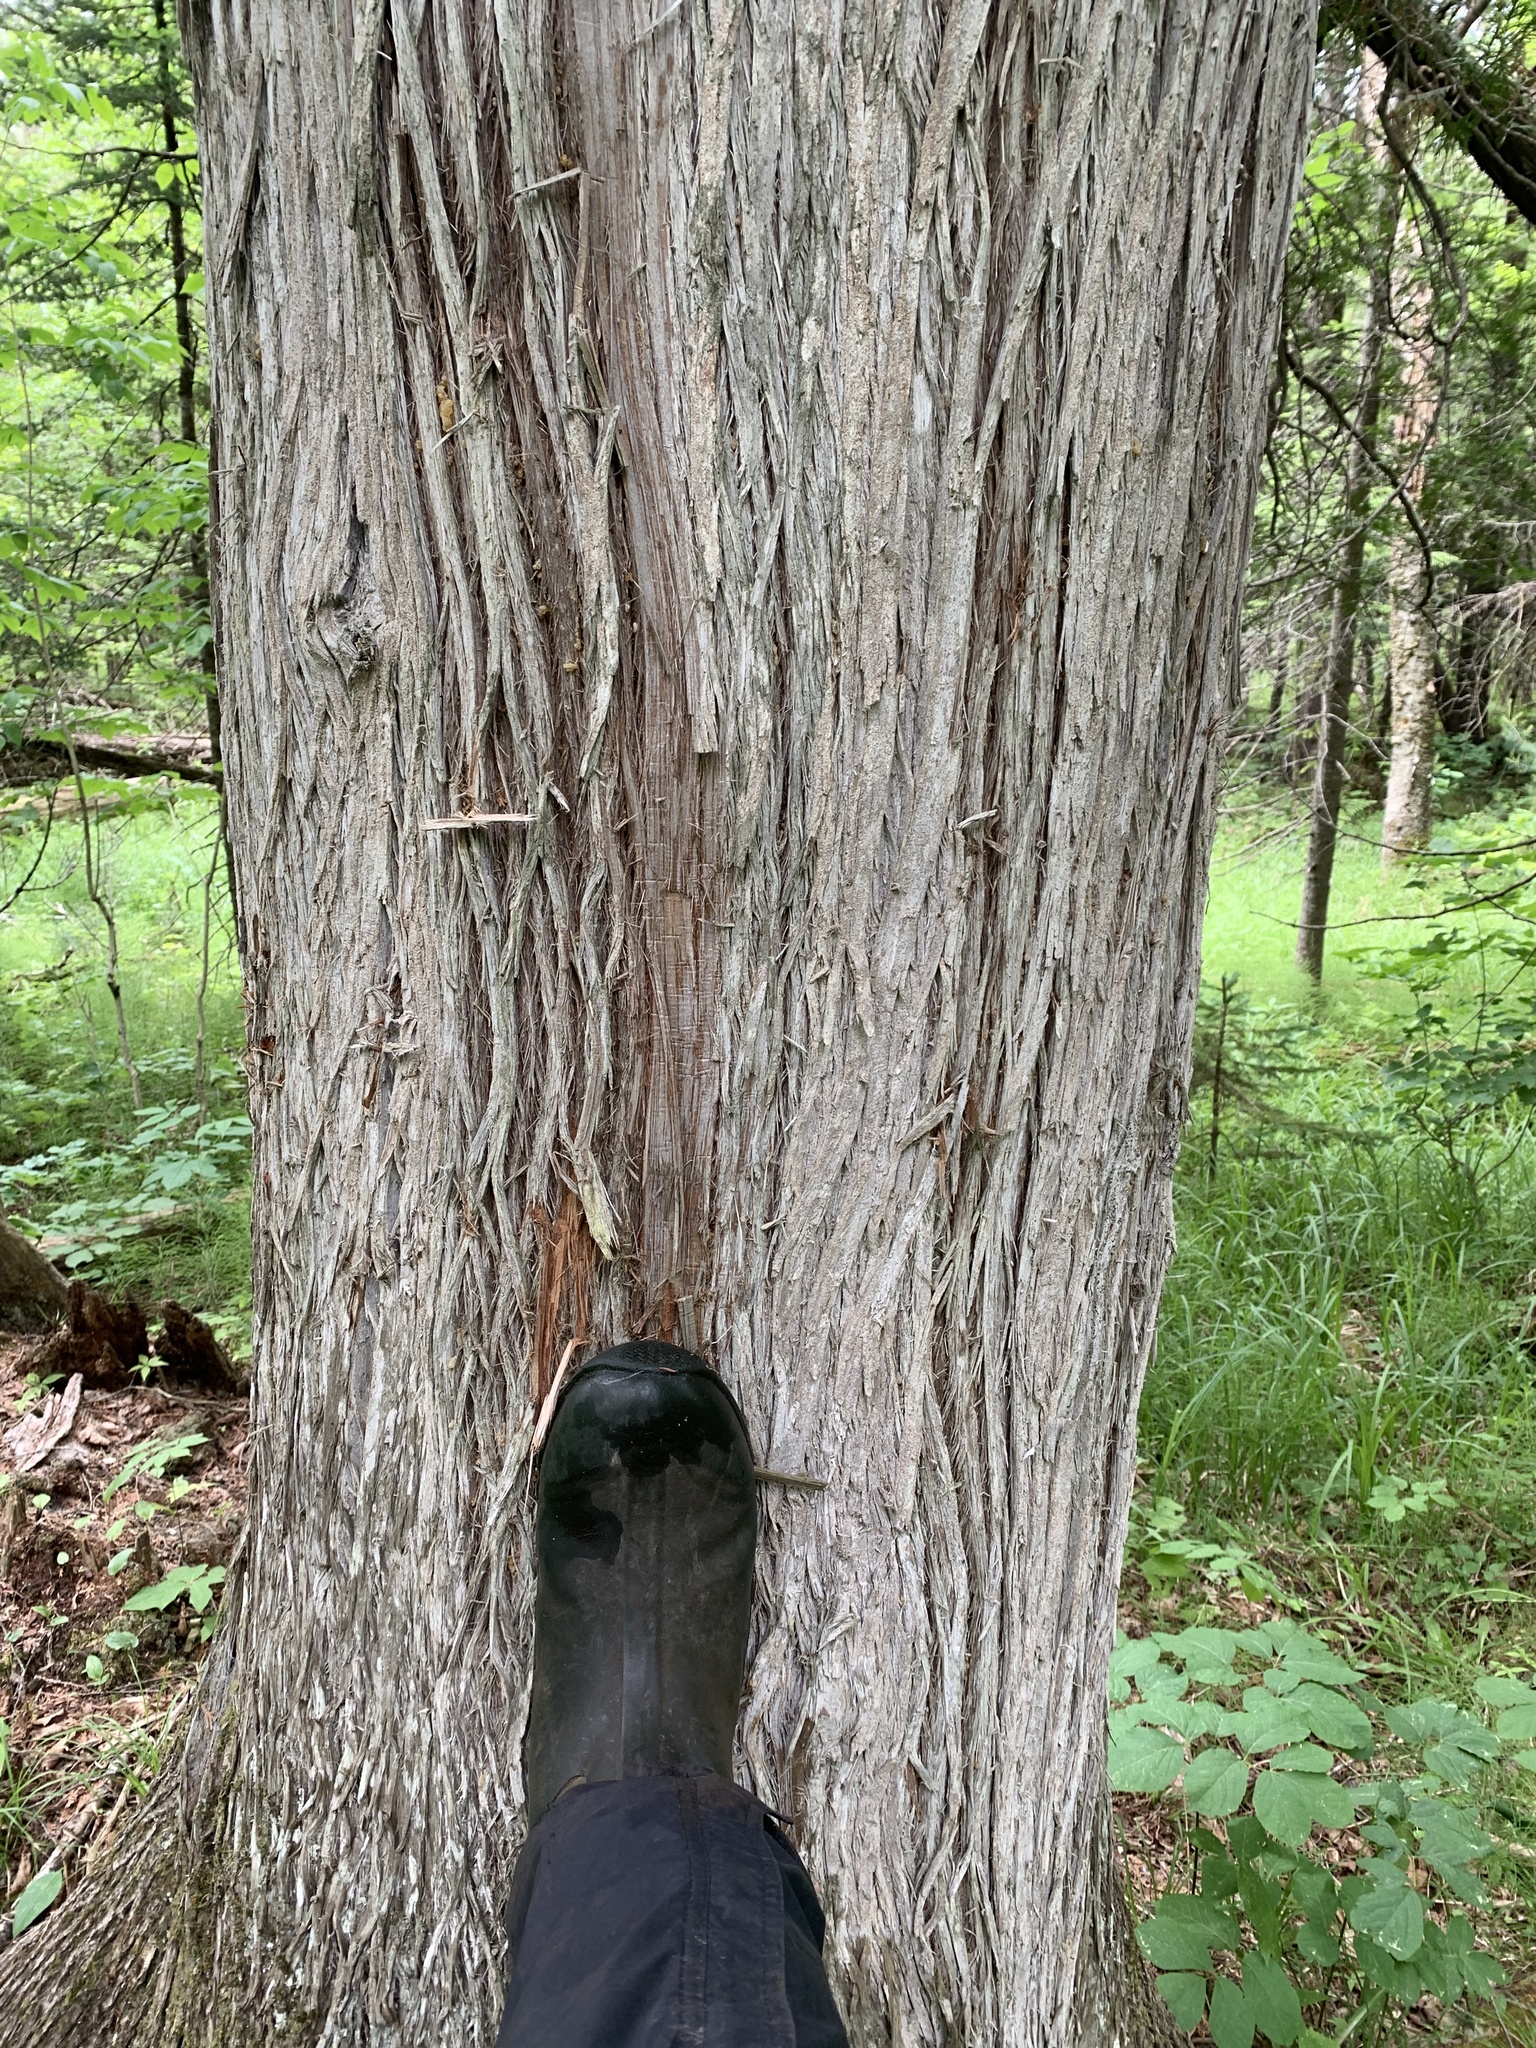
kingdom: Plantae
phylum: Tracheophyta
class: Pinopsida
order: Pinales
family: Cupressaceae
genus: Thuja
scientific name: Thuja occidentalis
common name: Northern white-cedar
